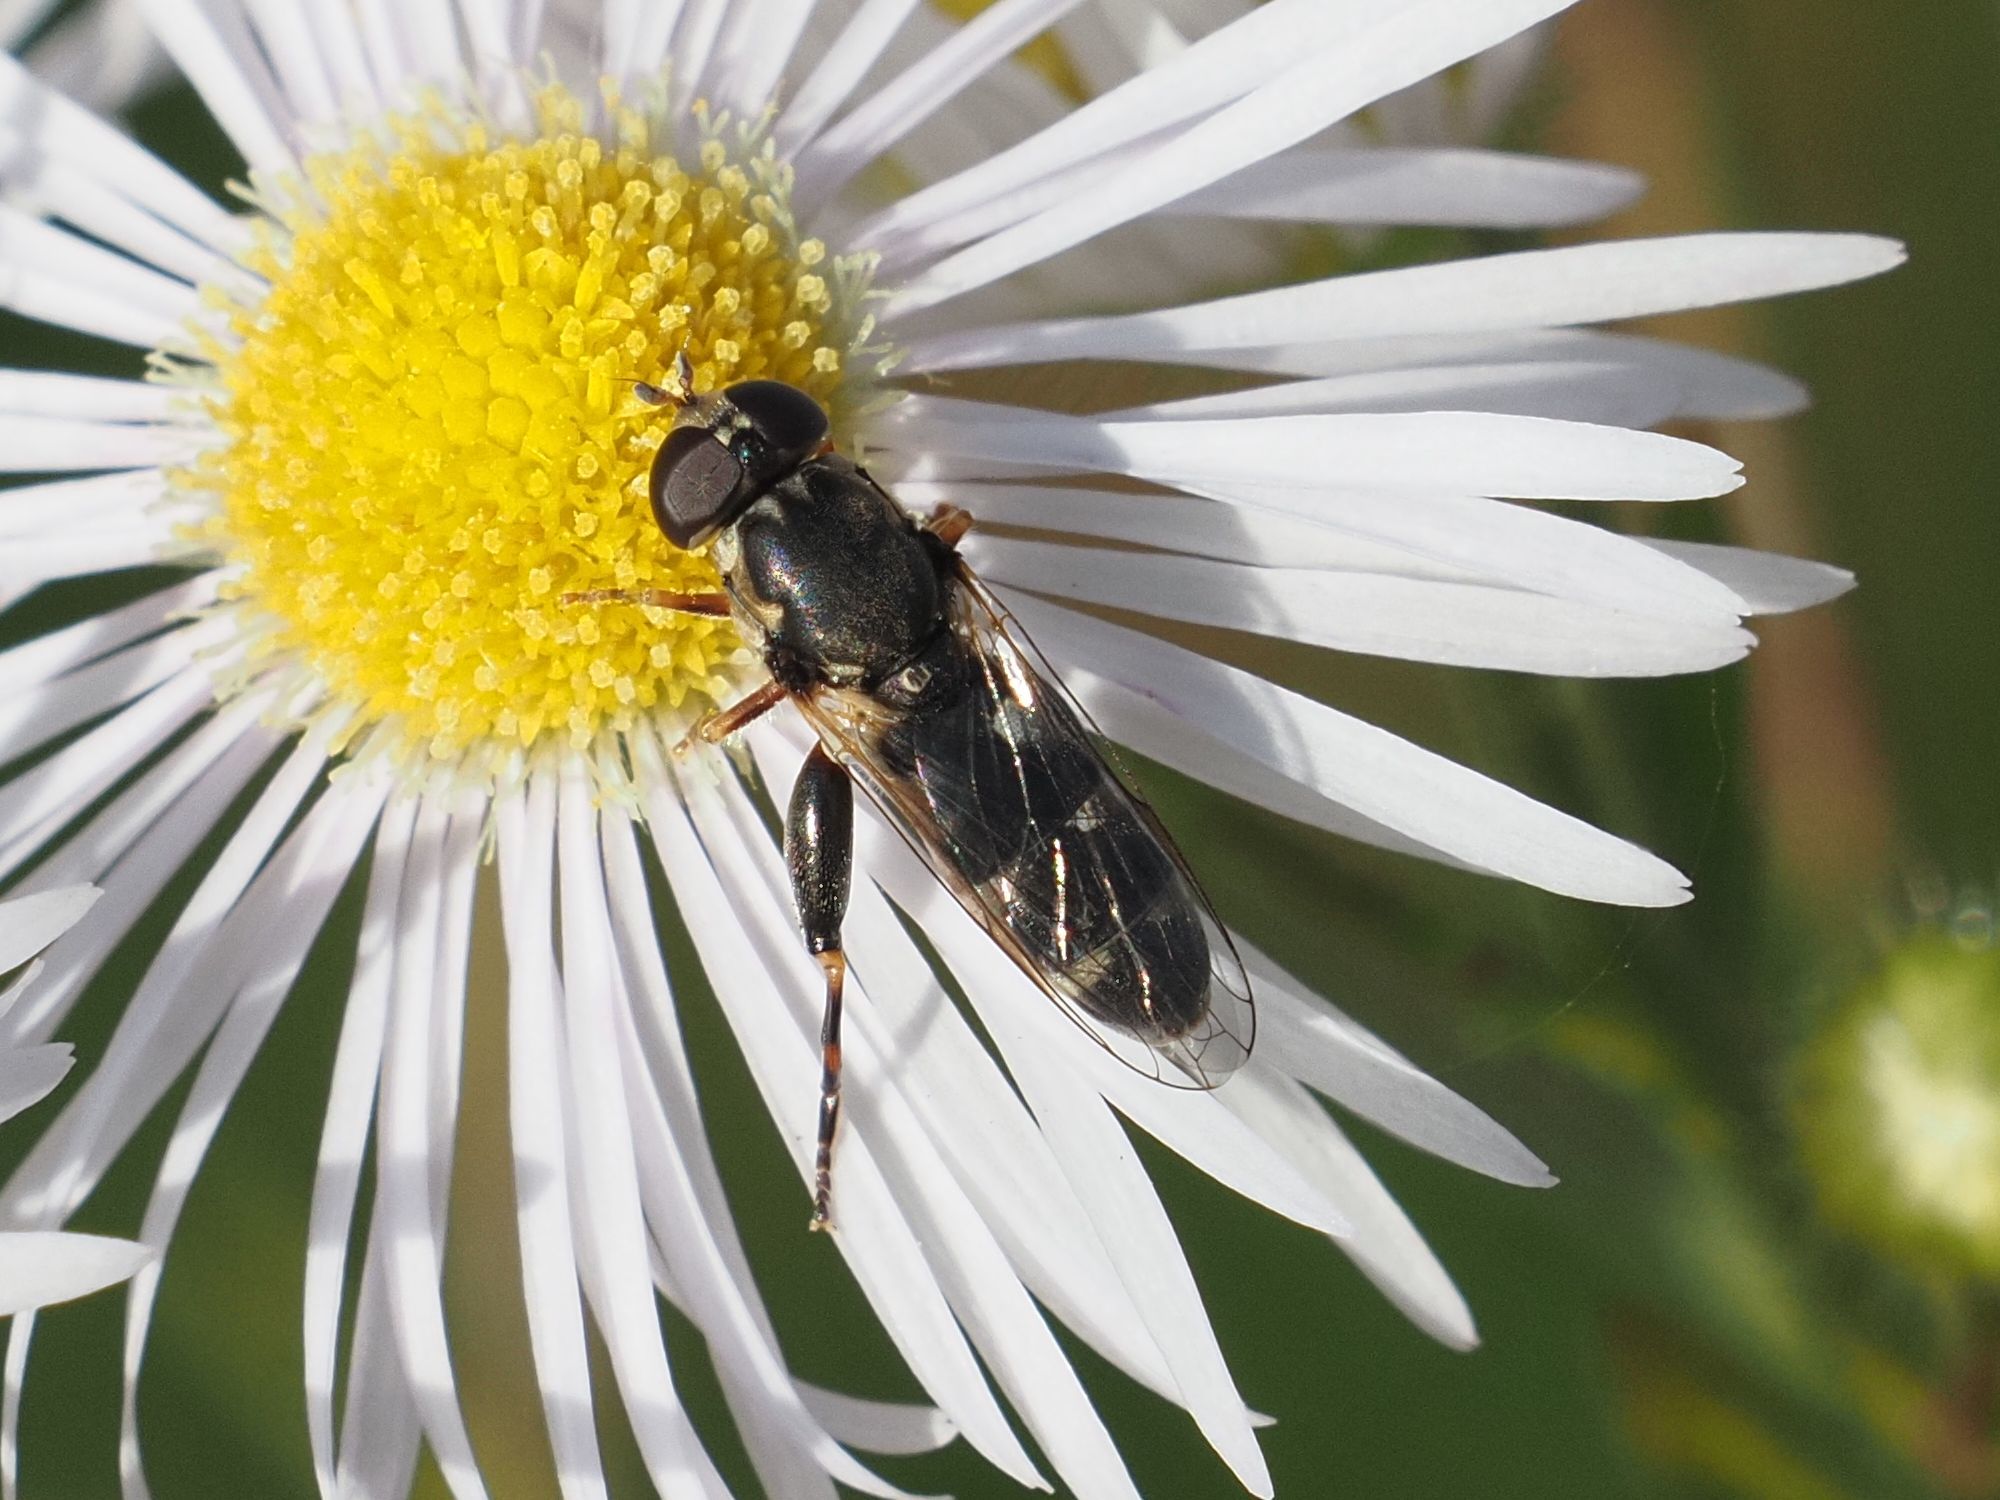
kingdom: Animalia
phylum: Arthropoda
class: Insecta
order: Diptera
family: Syrphidae
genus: Syritta
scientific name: Syritta pipiens
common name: Hover fly
